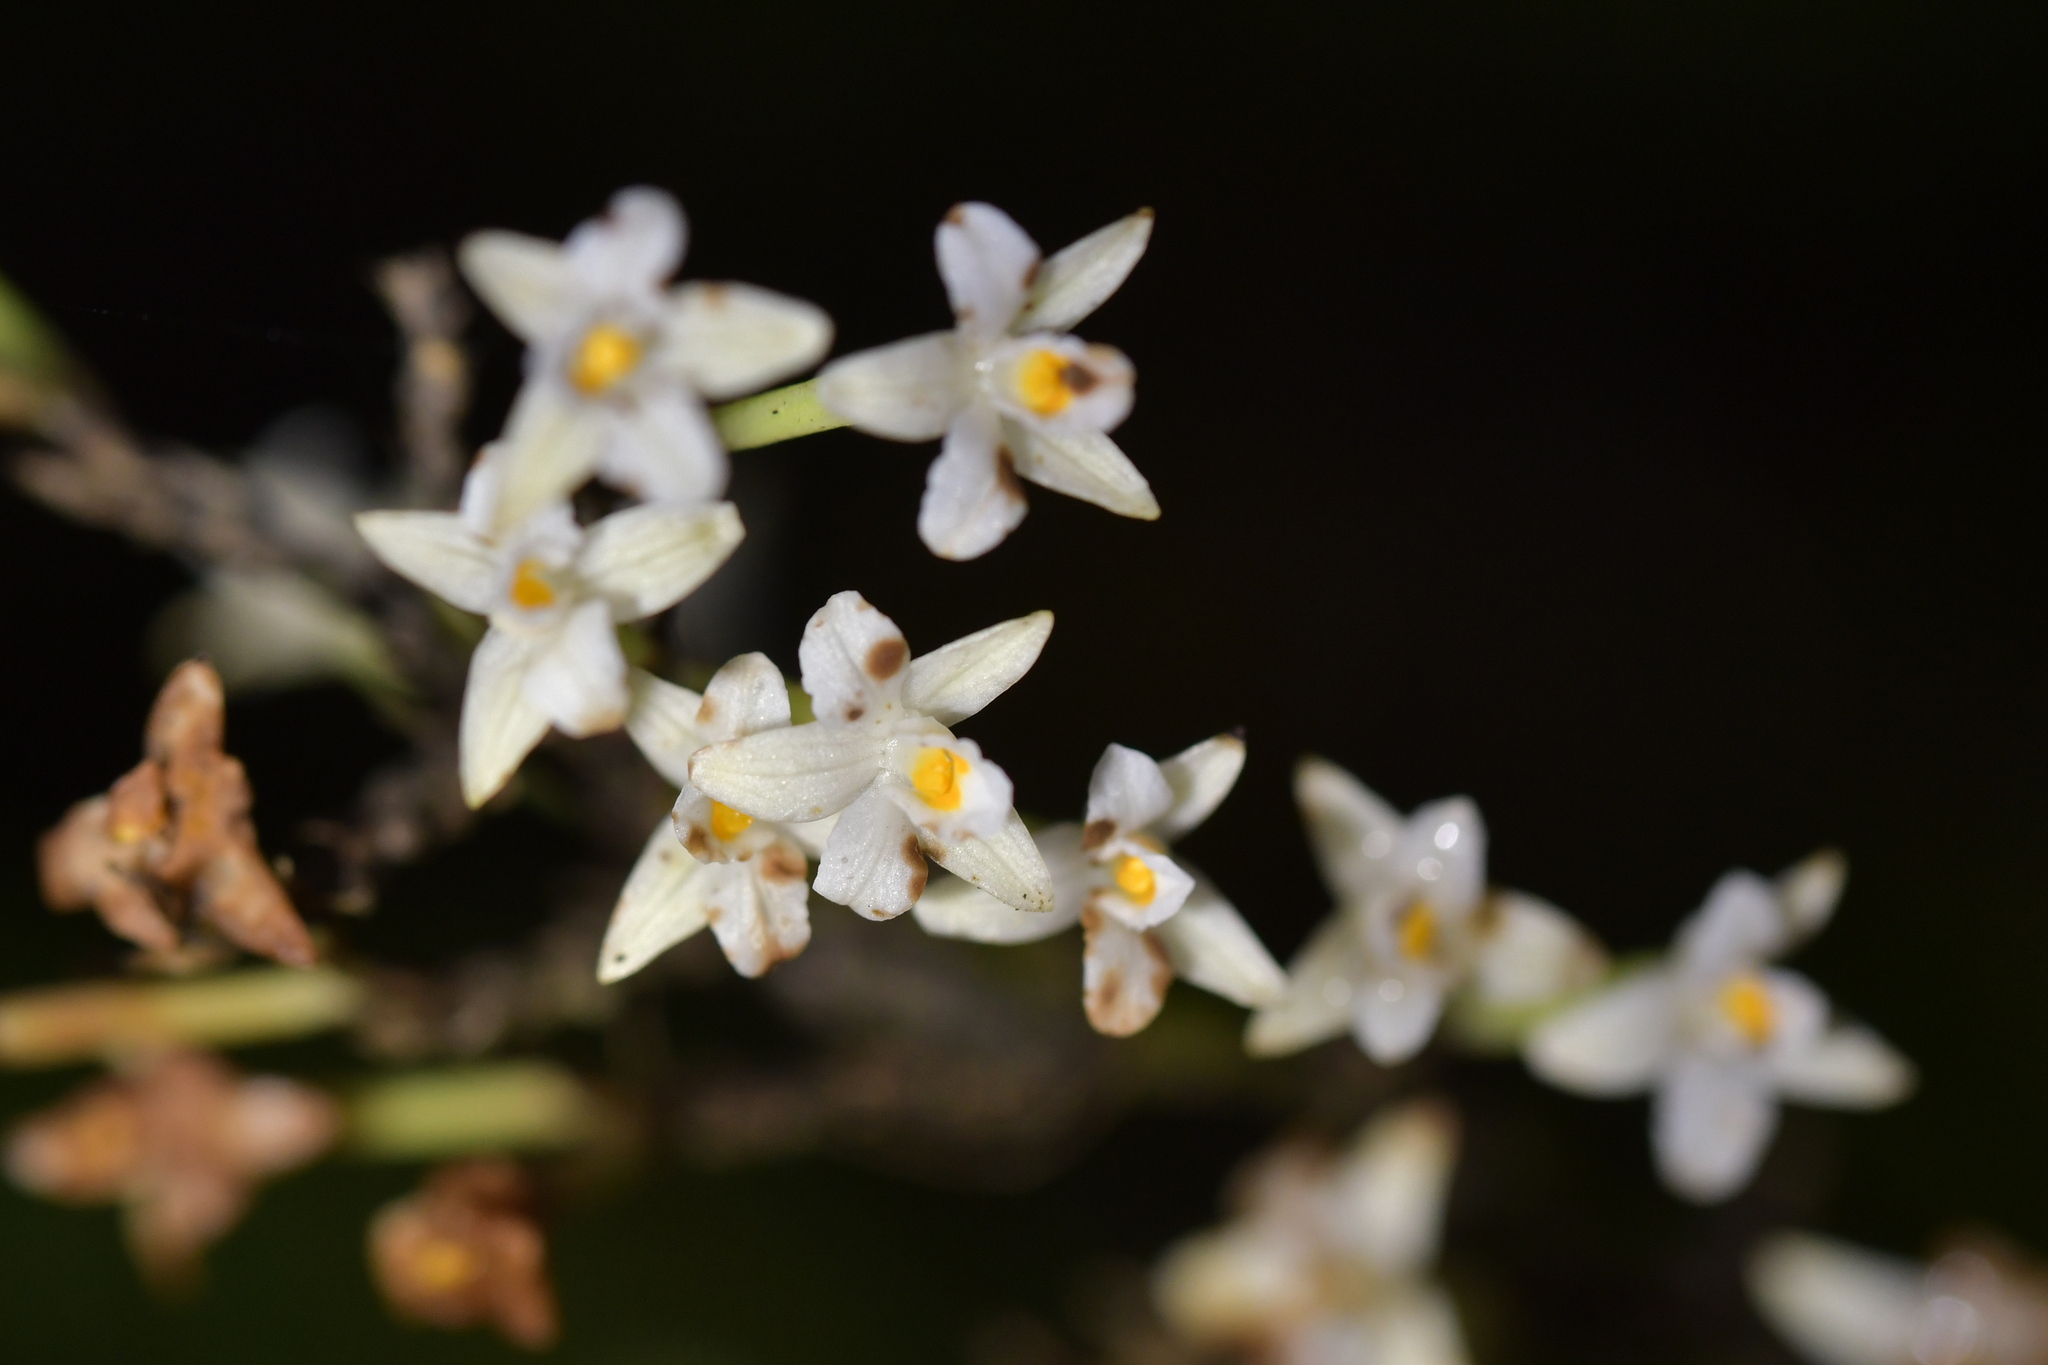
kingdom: Plantae
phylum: Tracheophyta
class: Liliopsida
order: Asparagales
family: Orchidaceae
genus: Earina
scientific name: Earina autumnalis
